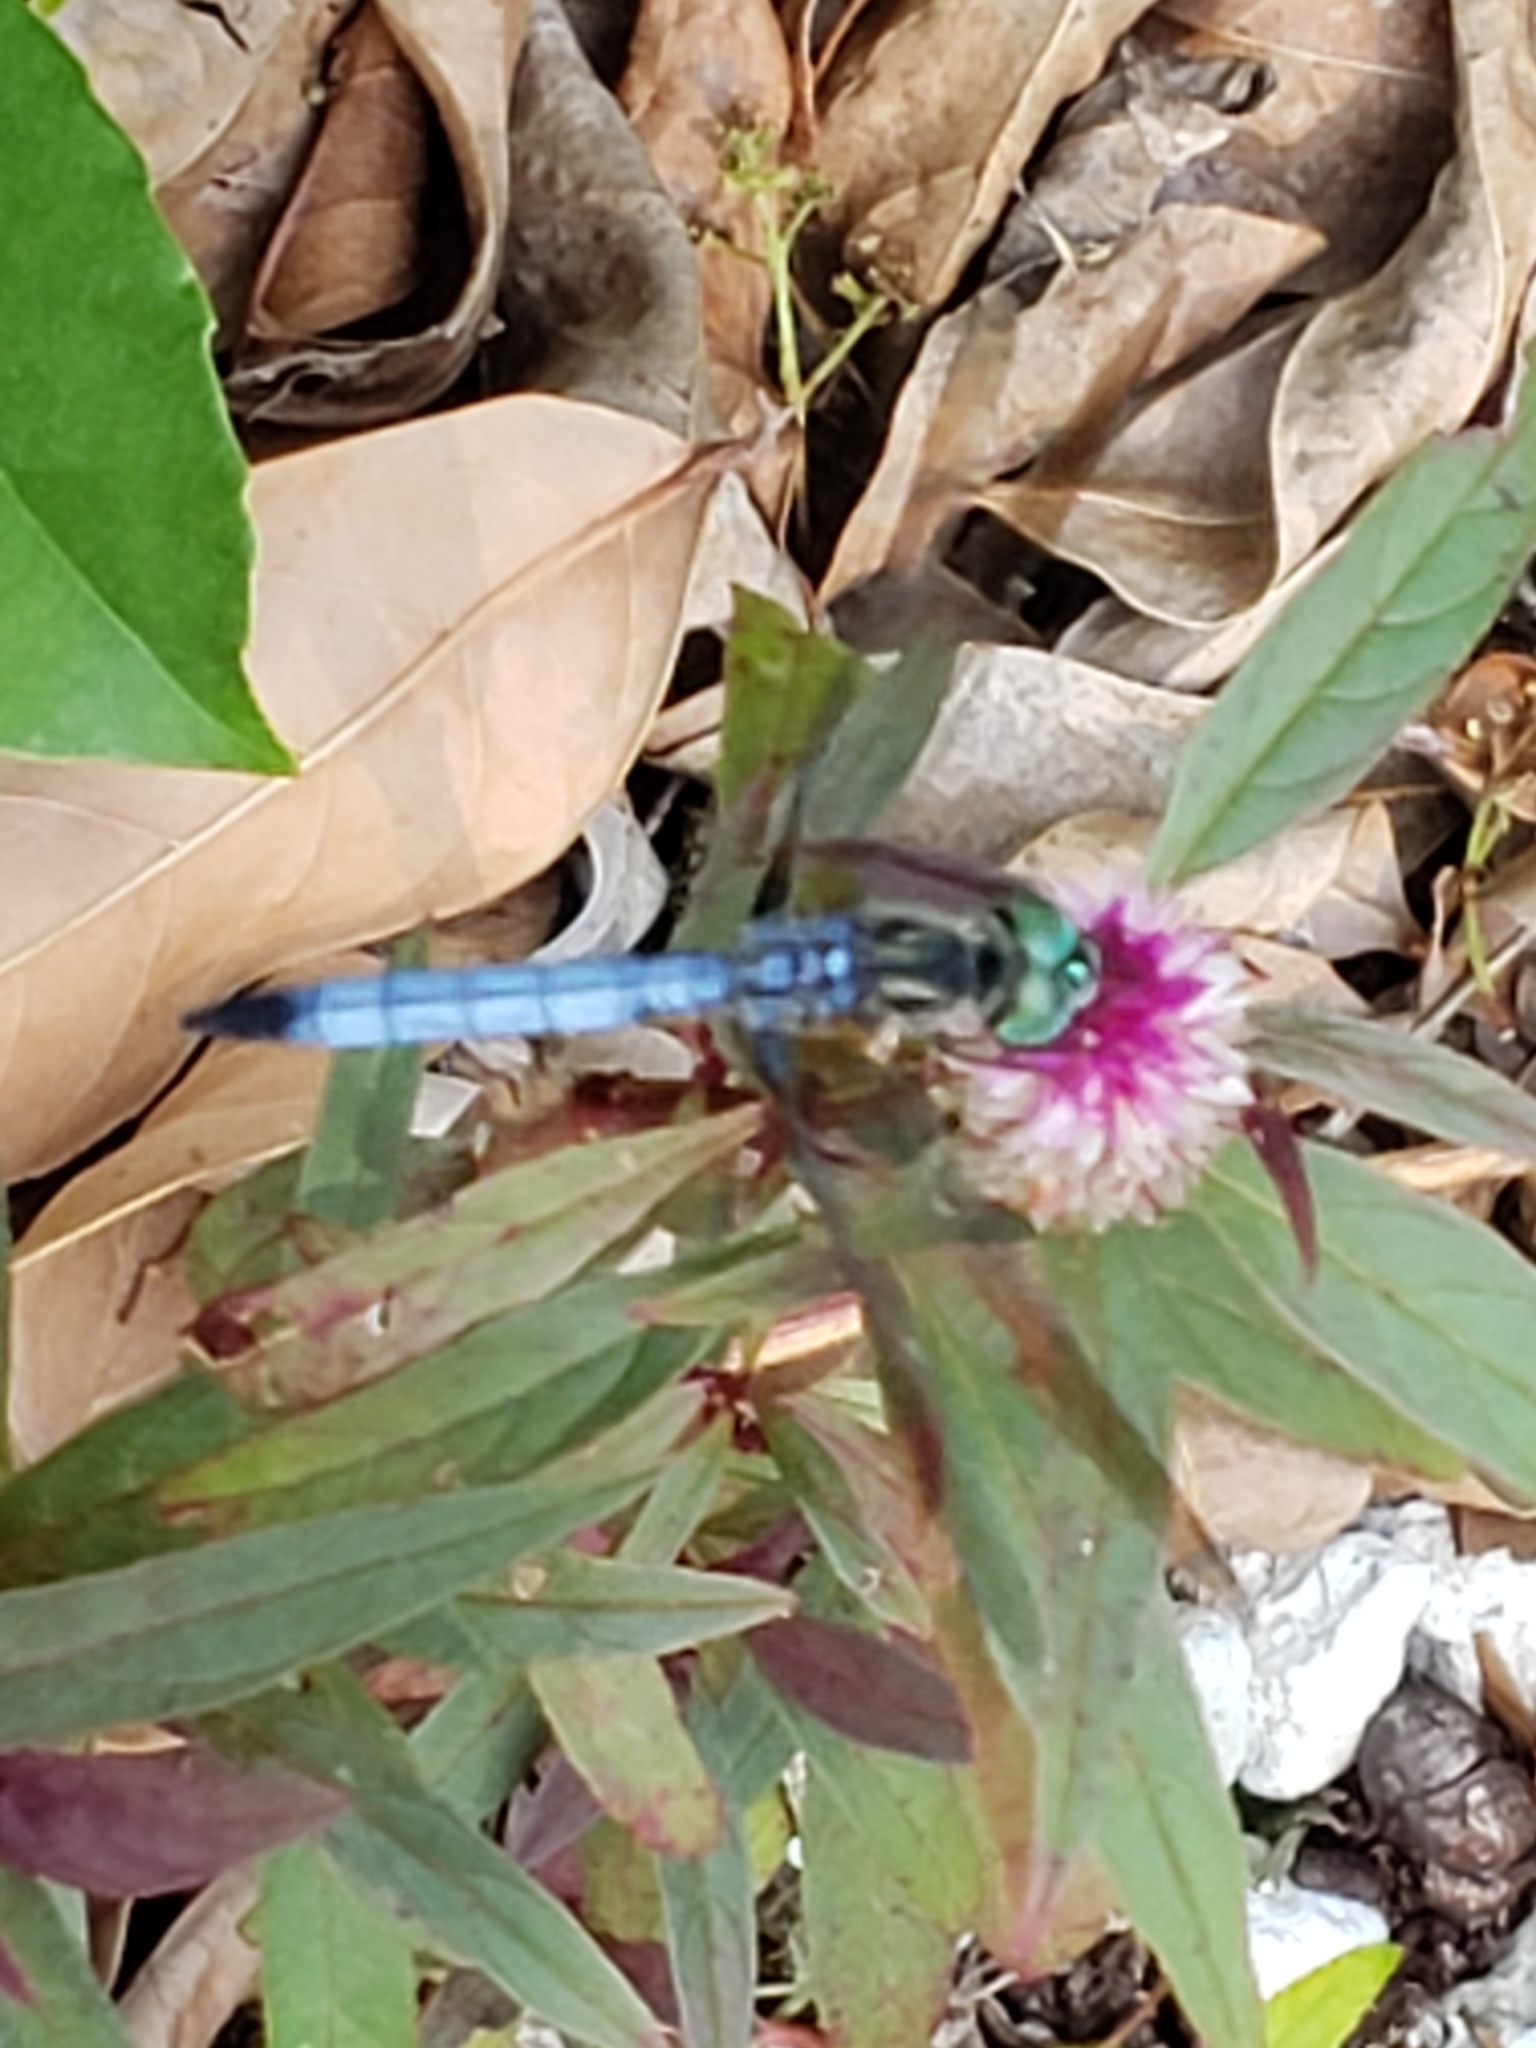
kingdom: Animalia
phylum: Arthropoda
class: Insecta
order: Odonata
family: Libellulidae
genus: Pachydiplax
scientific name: Pachydiplax longipennis
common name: Blue dasher
